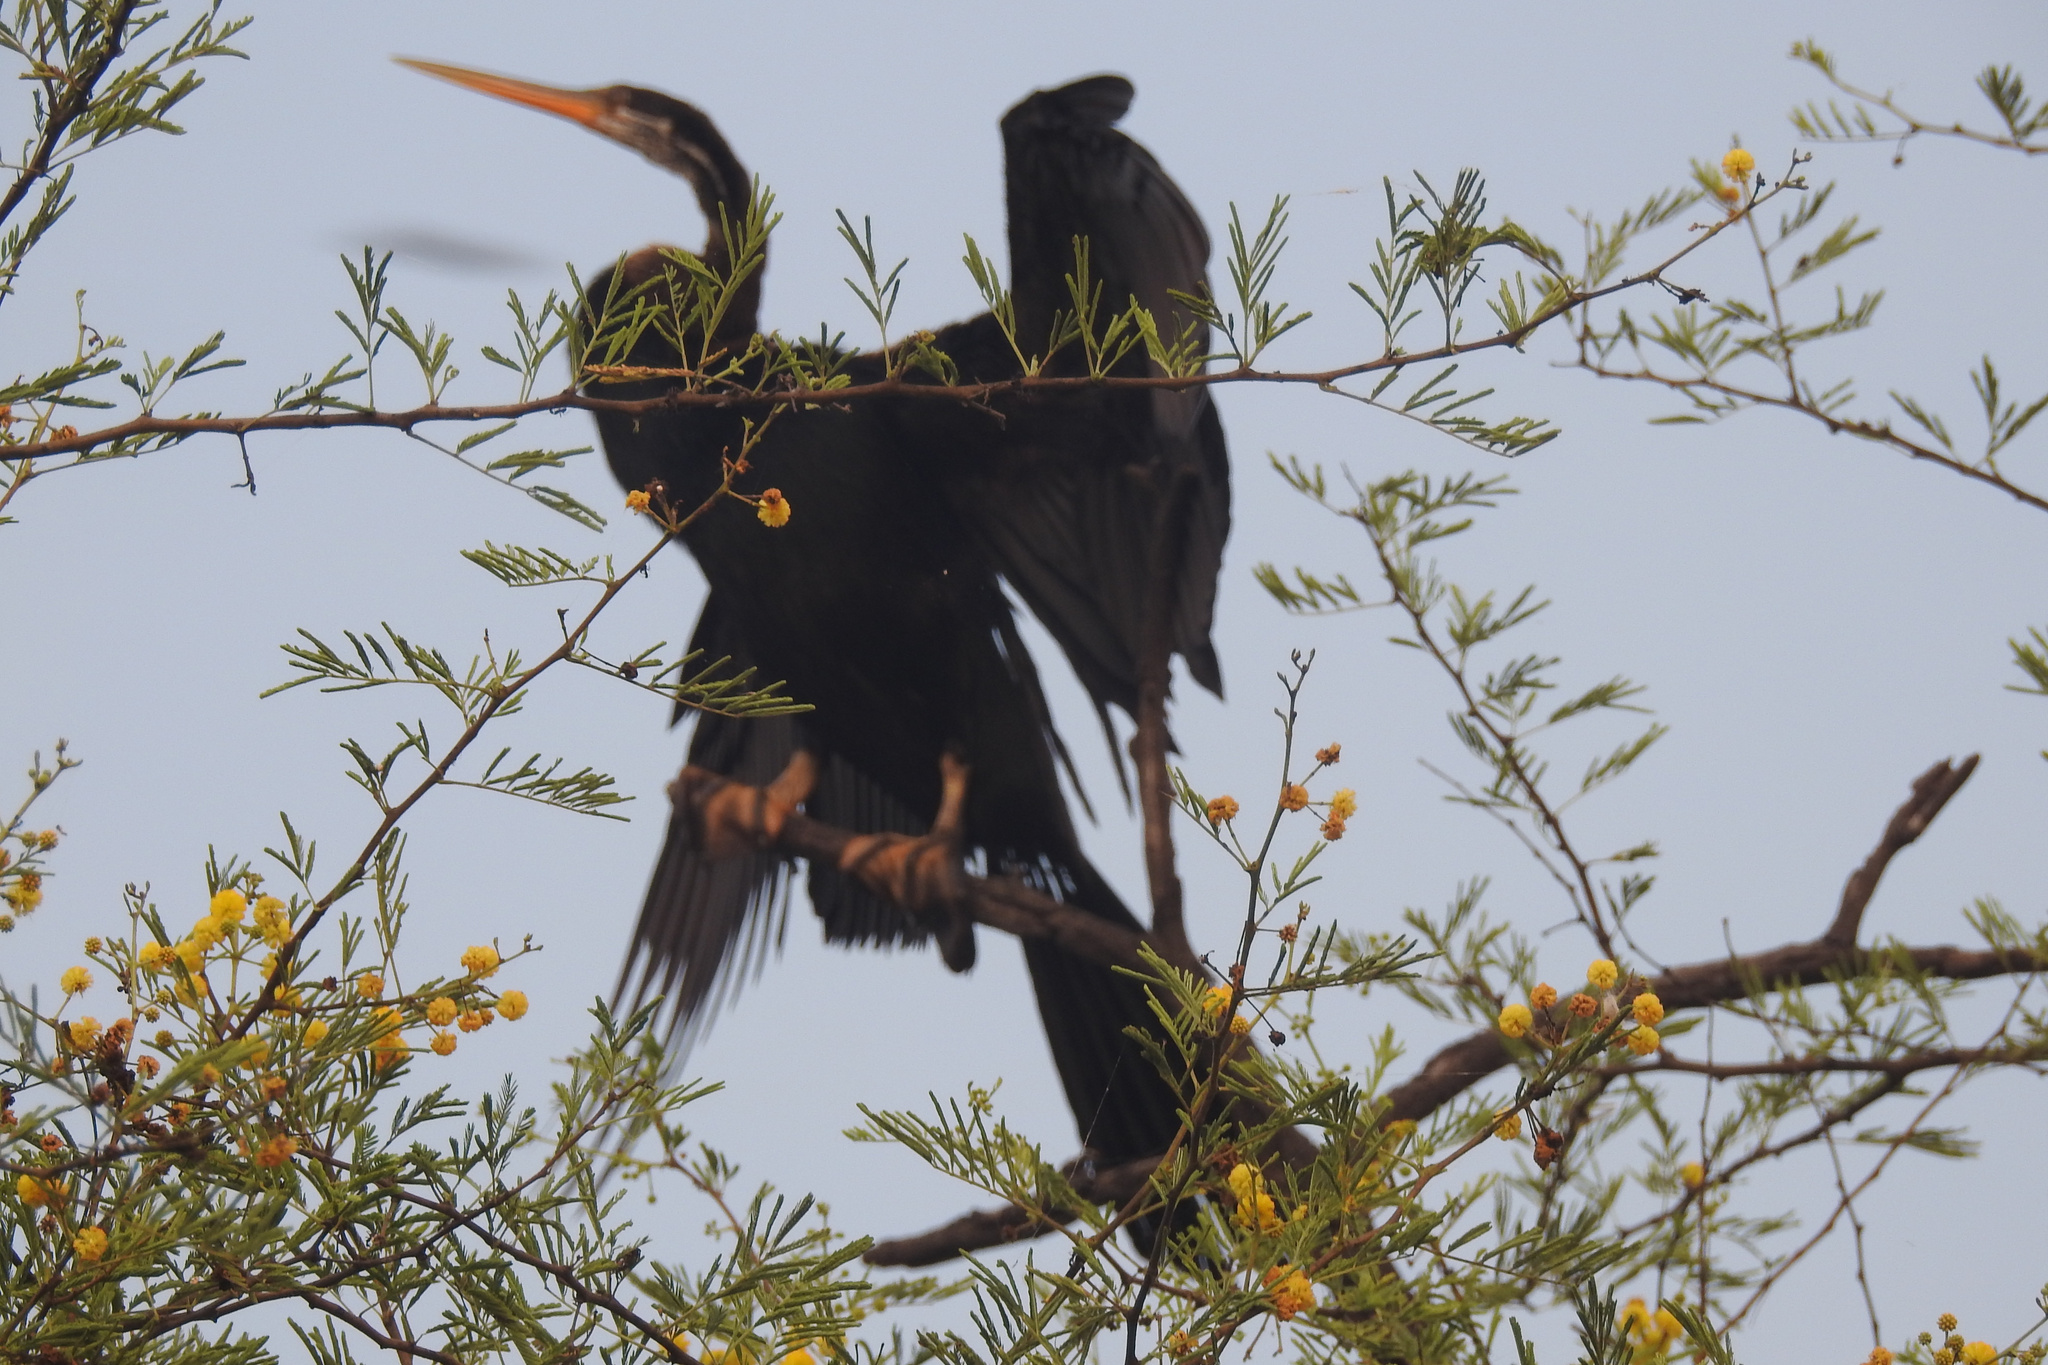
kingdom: Animalia
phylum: Chordata
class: Aves
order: Suliformes
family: Anhingidae
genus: Anhinga
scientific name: Anhinga melanogaster
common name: Oriental darter
